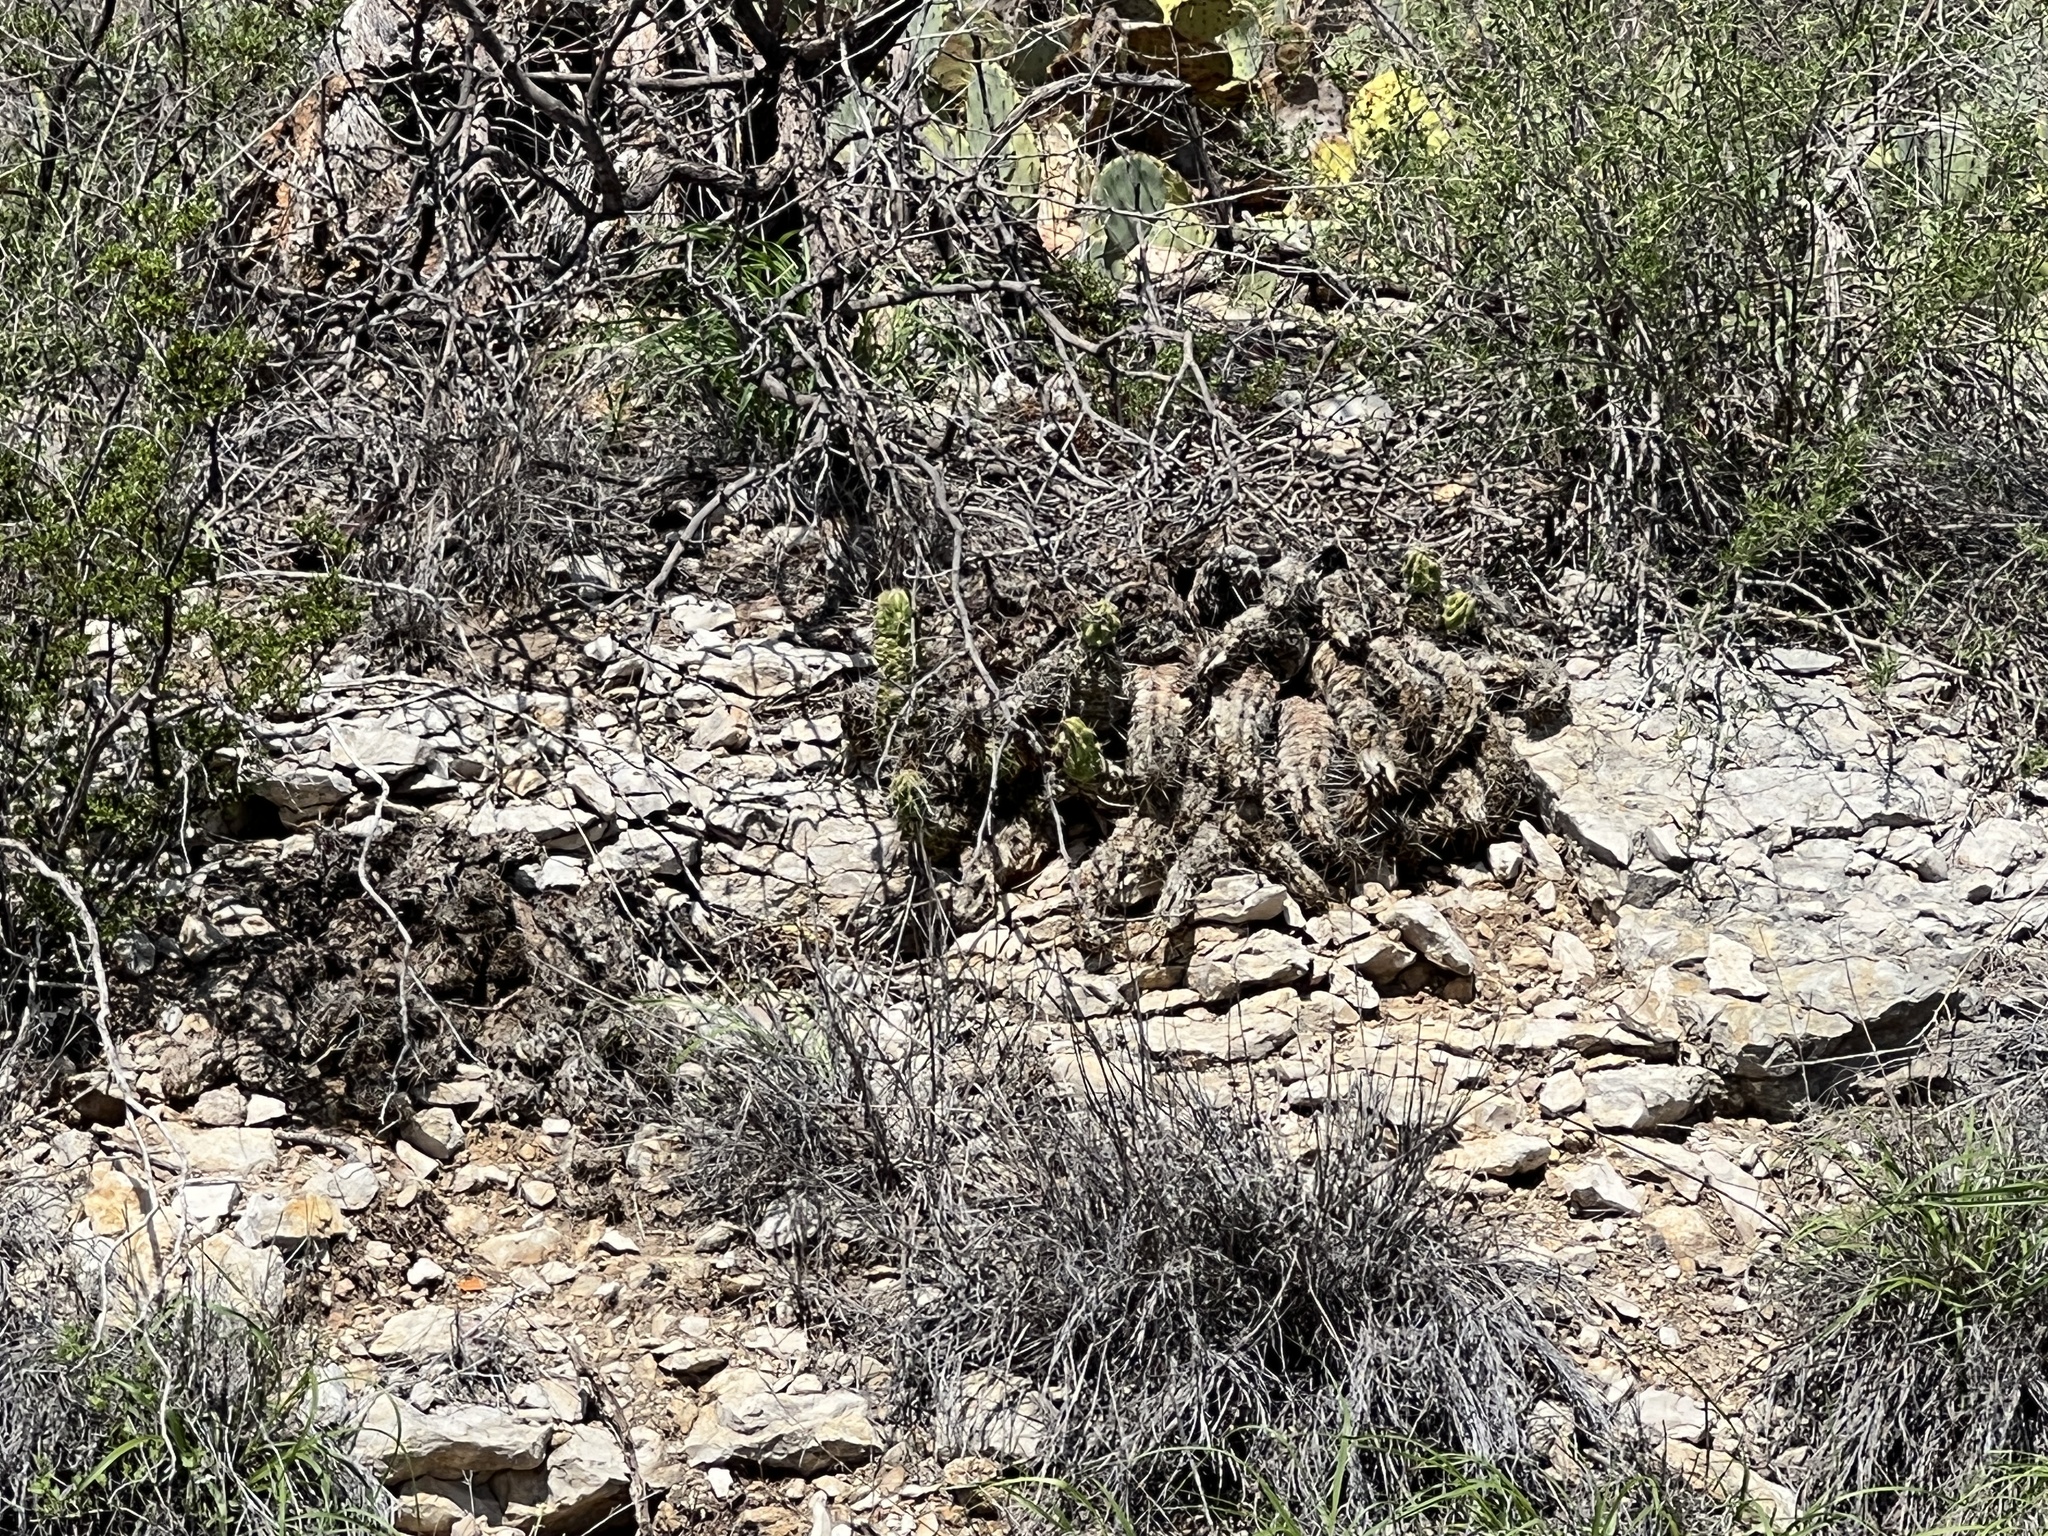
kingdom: Plantae
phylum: Tracheophyta
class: Magnoliopsida
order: Caryophyllales
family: Cactaceae
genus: Echinocereus
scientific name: Echinocereus enneacanthus
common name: Pitaya
